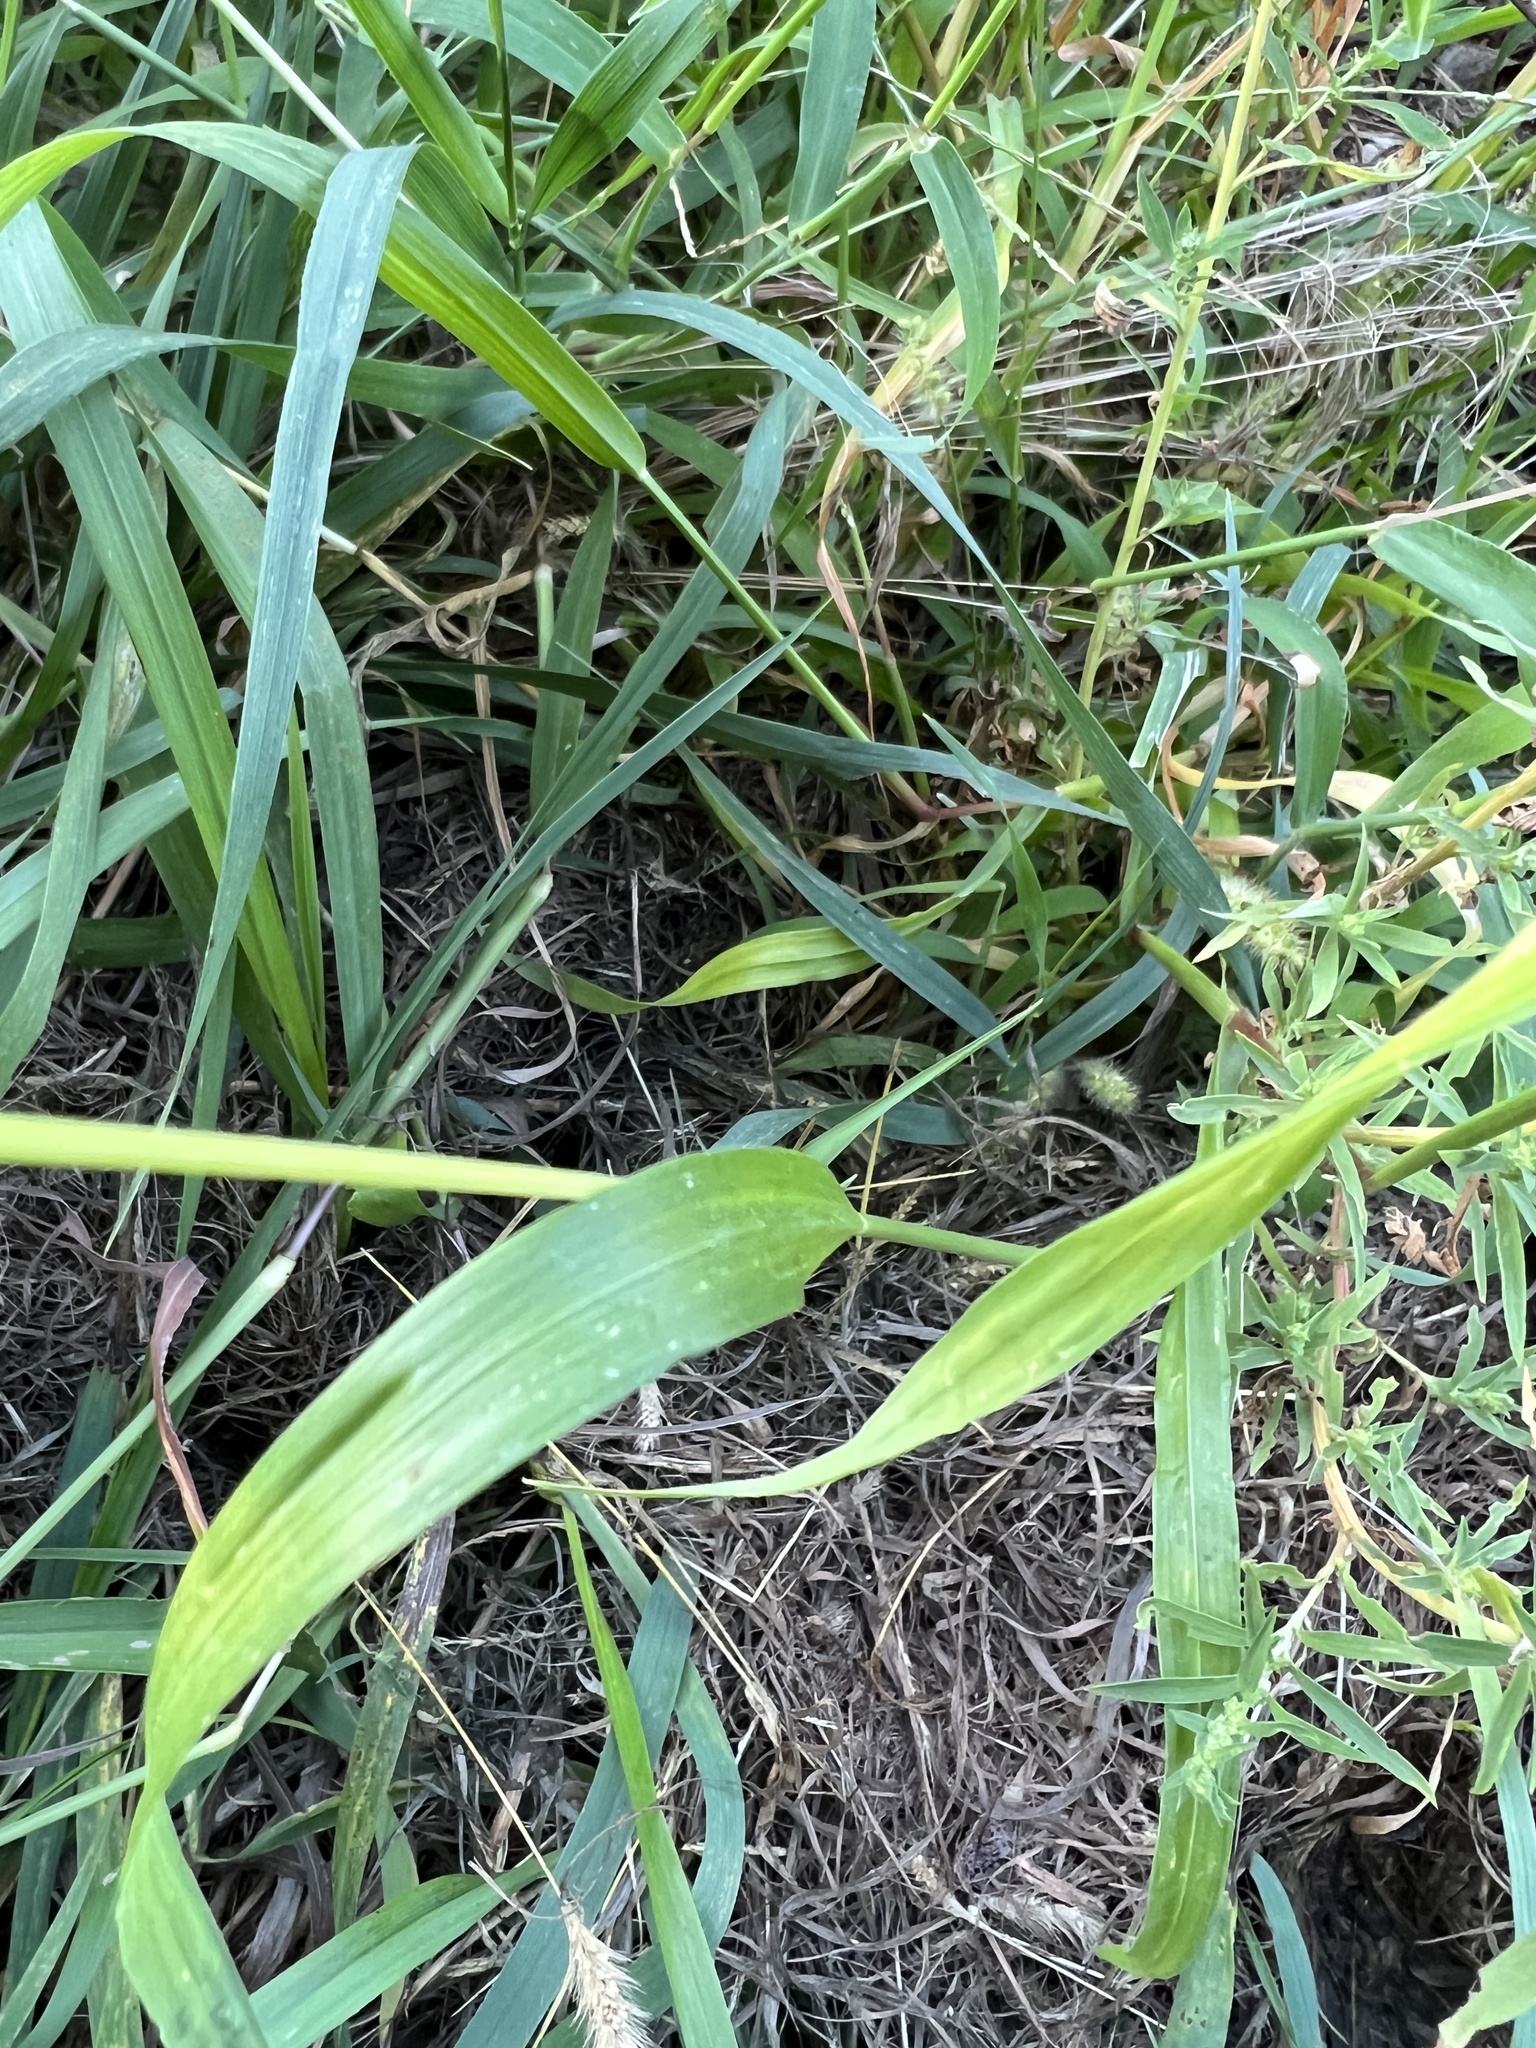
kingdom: Plantae
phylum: Tracheophyta
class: Liliopsida
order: Poales
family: Poaceae
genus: Setaria
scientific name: Setaria pumila
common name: Yellow bristle-grass
